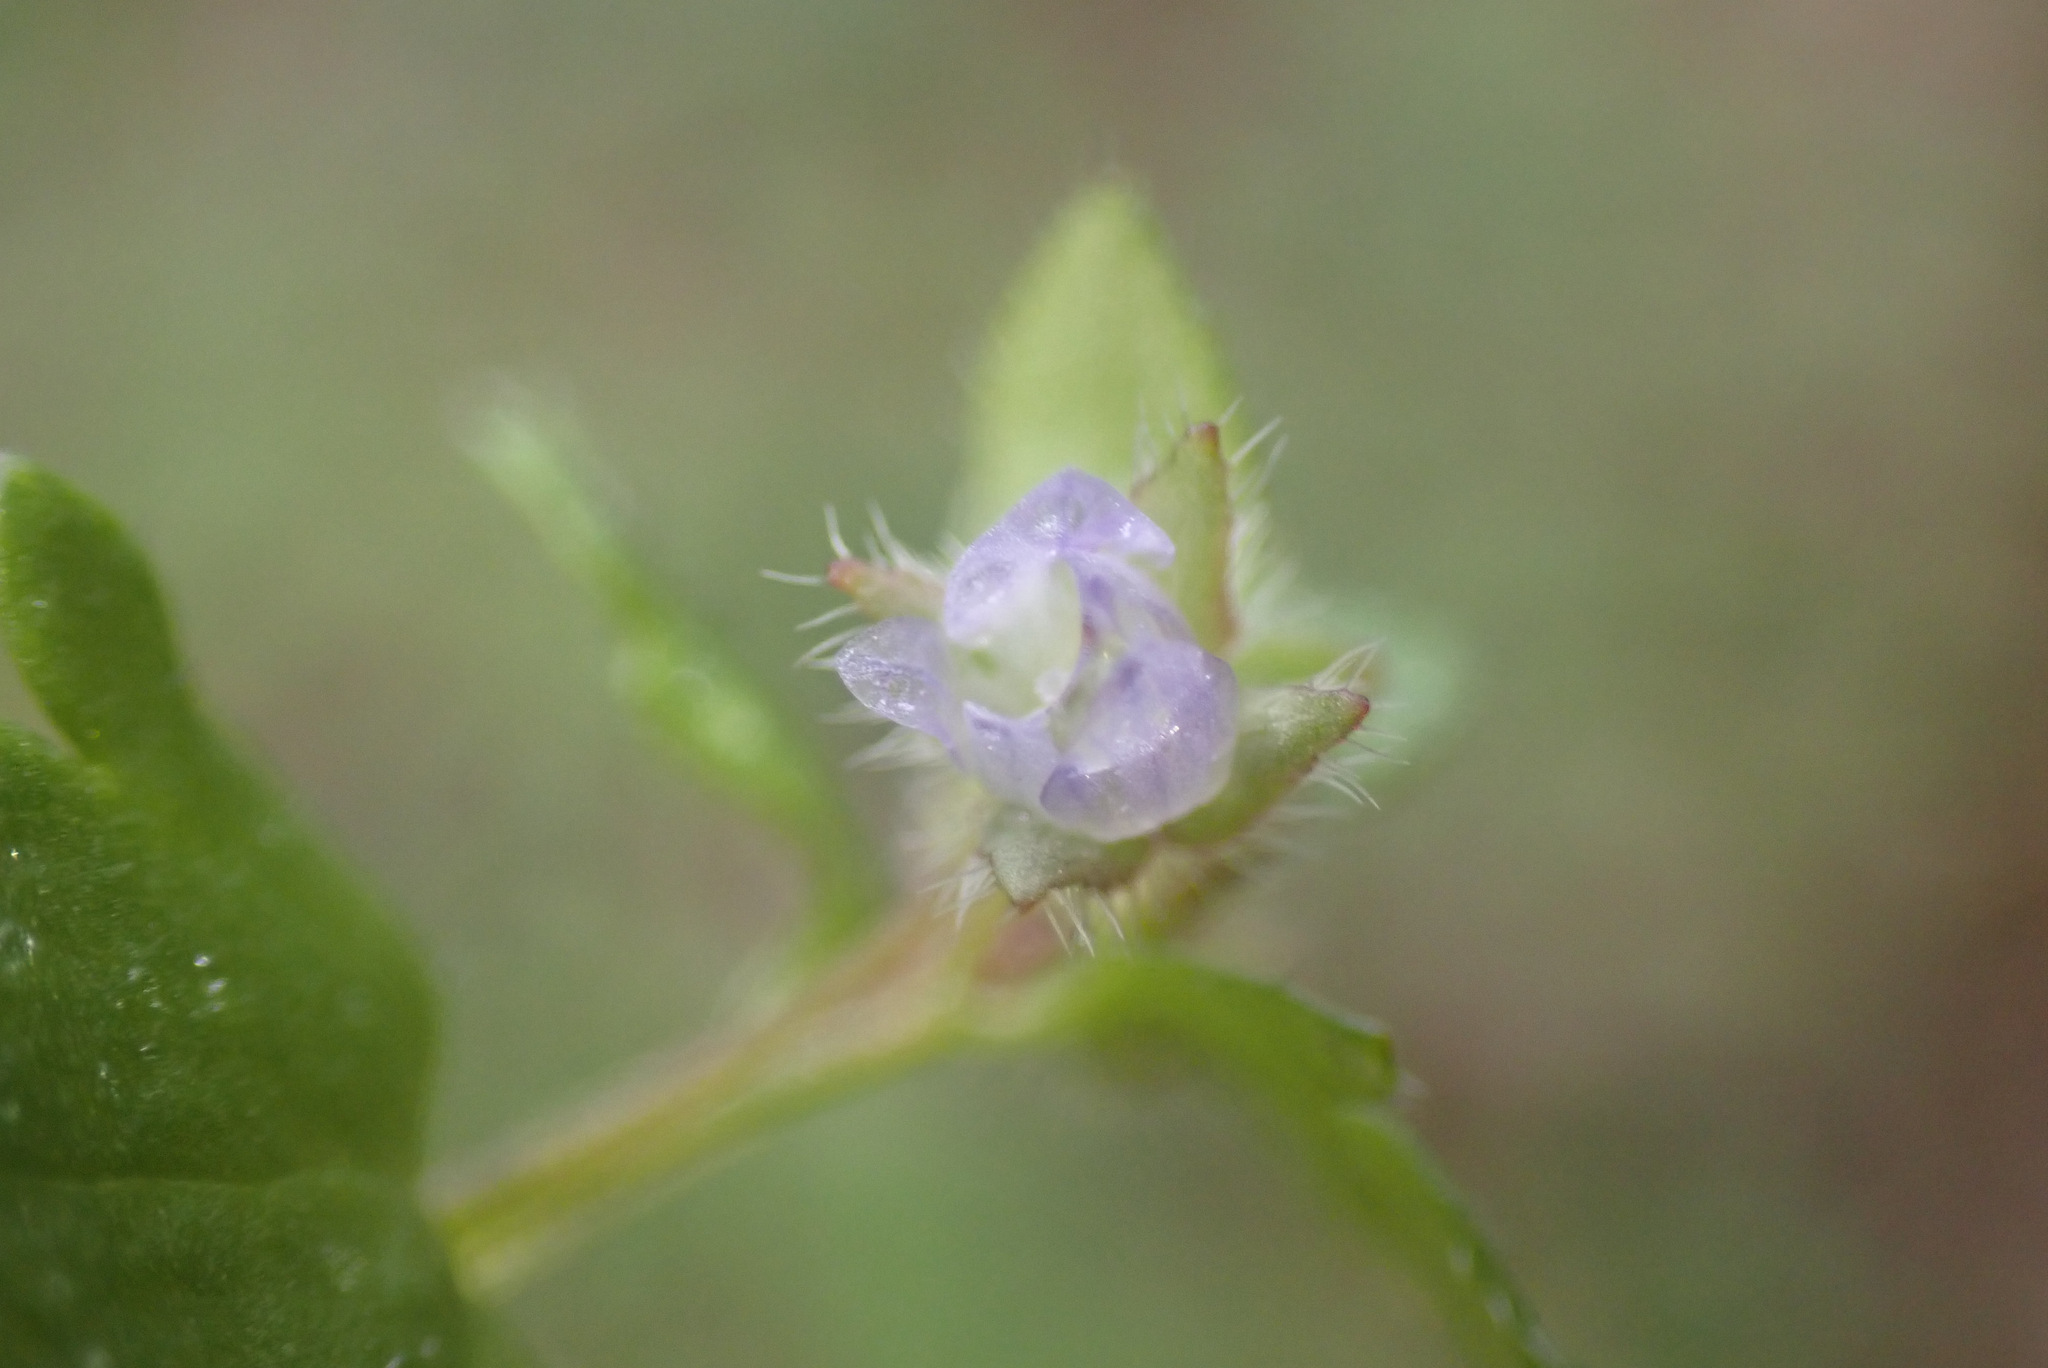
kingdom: Plantae
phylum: Tracheophyta
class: Magnoliopsida
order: Lamiales
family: Plantaginaceae
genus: Veronica
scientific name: Veronica sublobata
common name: False ivy-leaved speedwell
